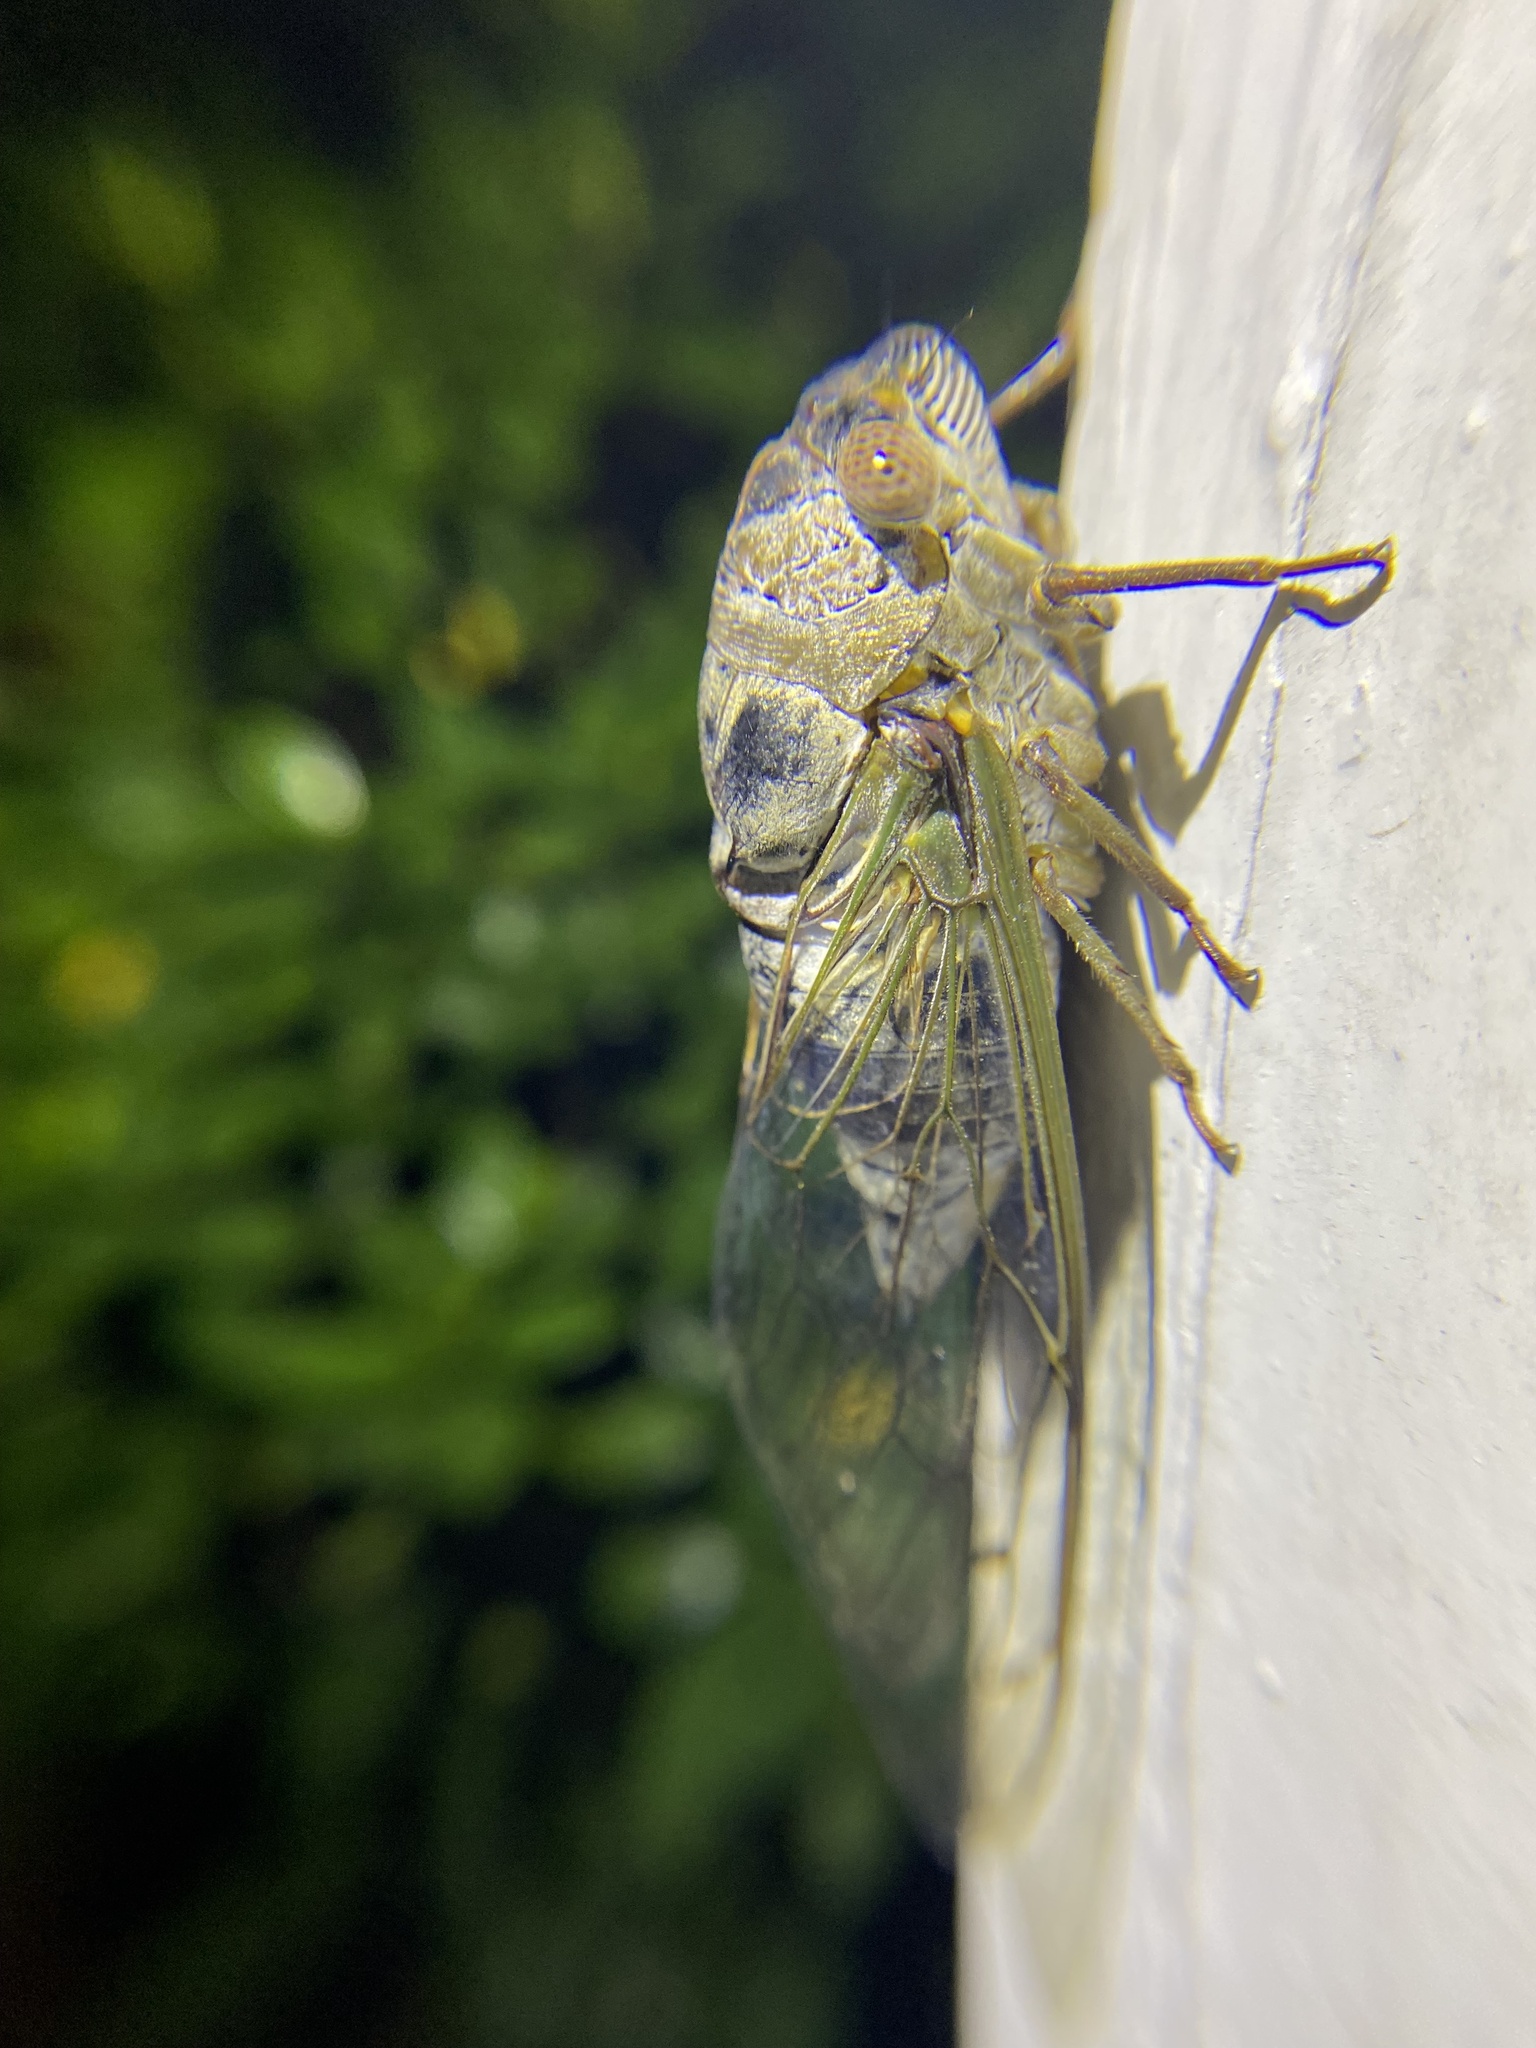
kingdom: Animalia
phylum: Arthropoda
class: Insecta
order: Hemiptera
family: Cicadidae
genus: Diceroprocta
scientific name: Diceroprocta grossa
